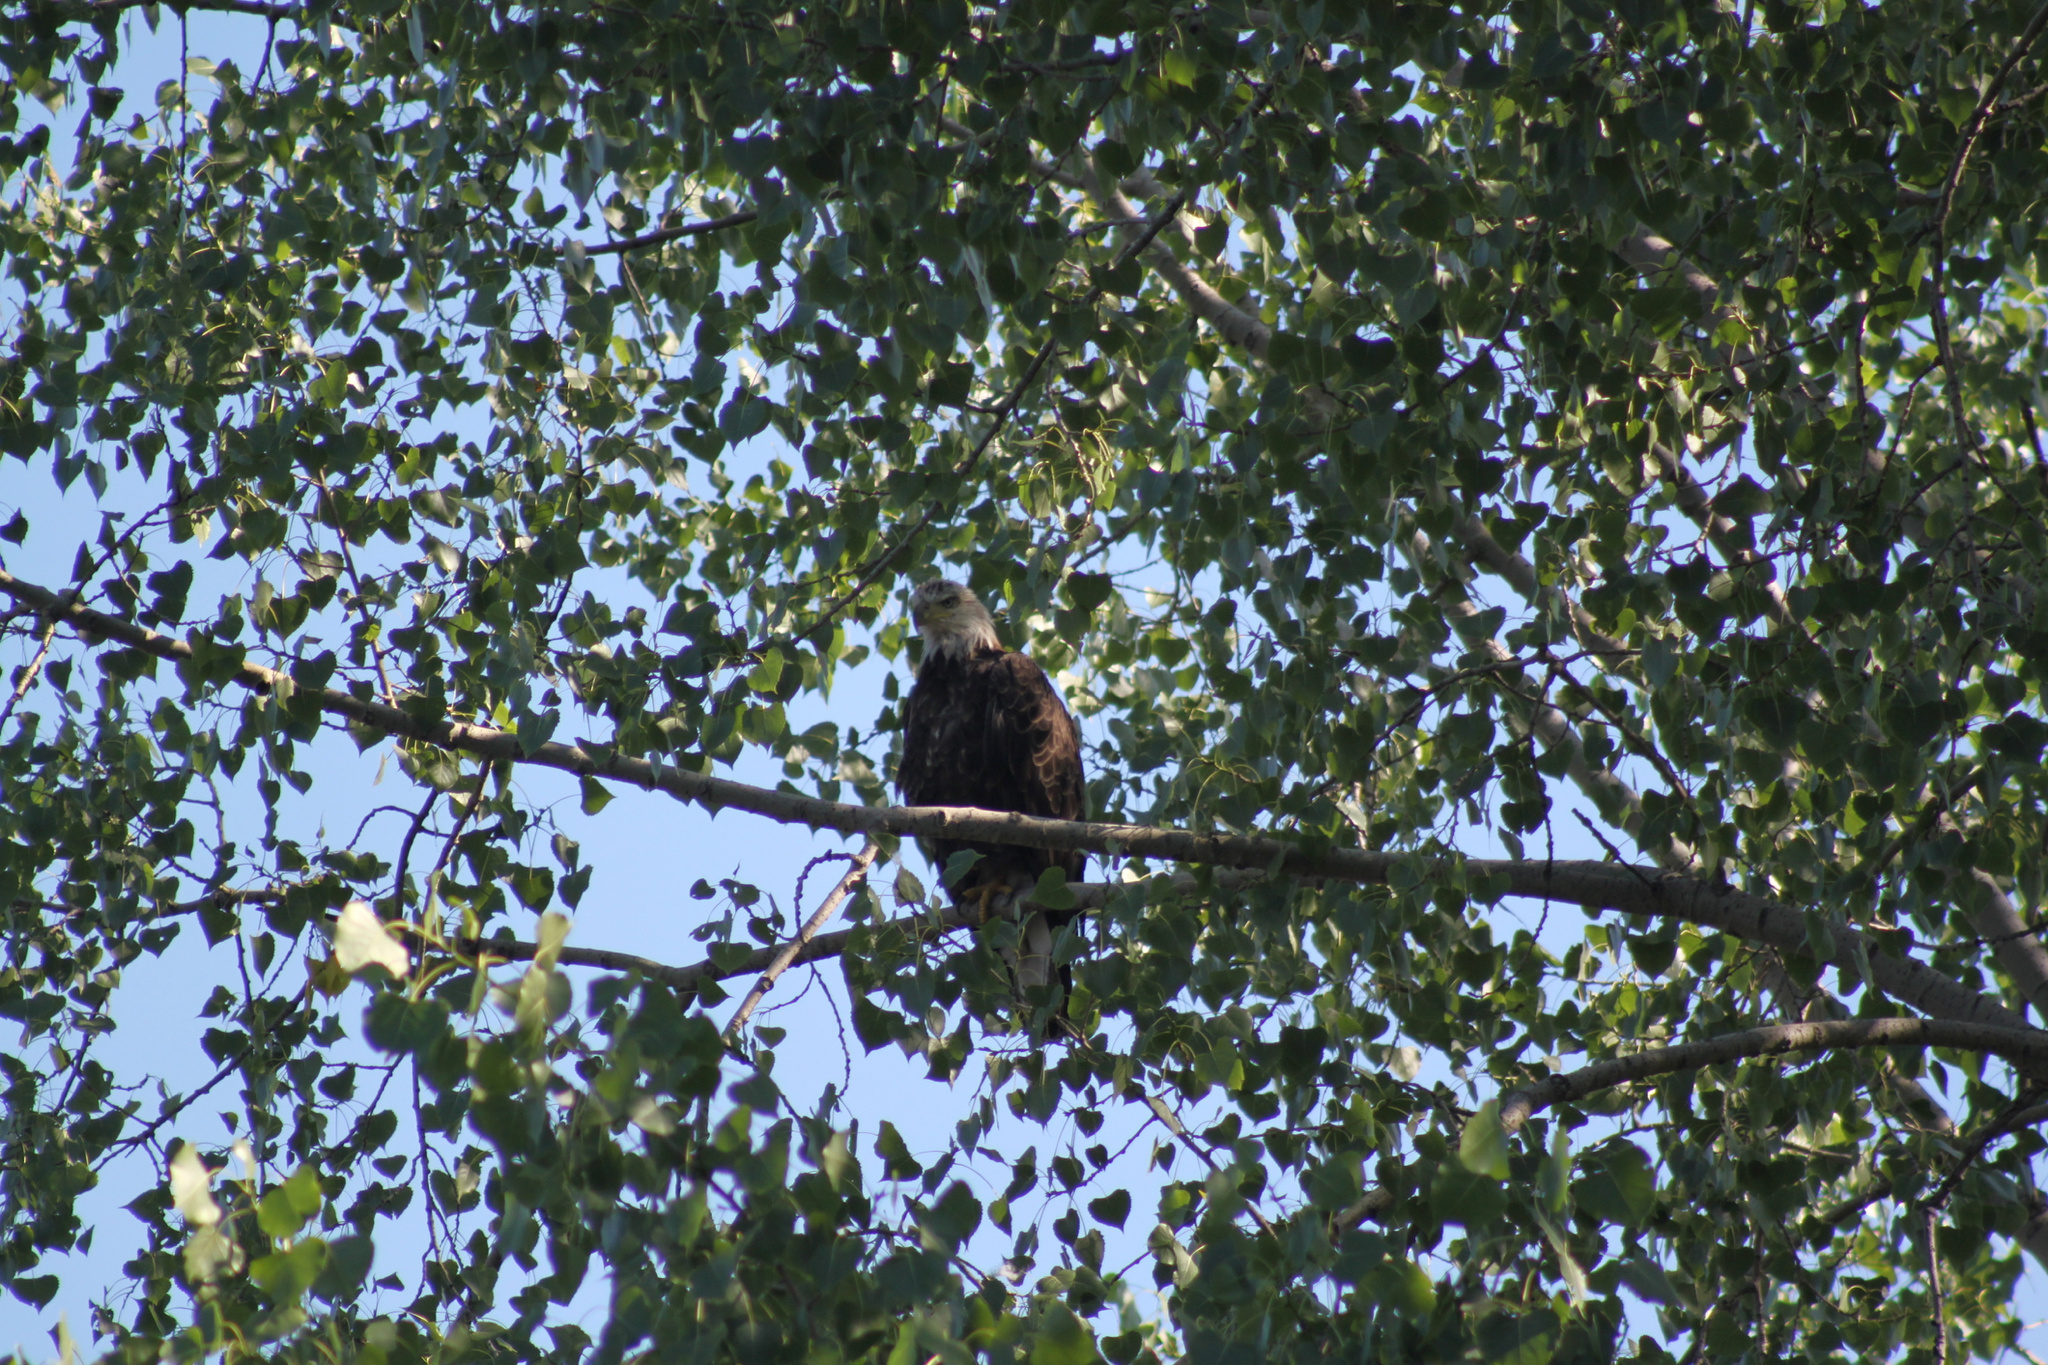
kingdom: Animalia
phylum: Chordata
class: Aves
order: Accipitriformes
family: Accipitridae
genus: Haliaeetus
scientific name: Haliaeetus leucocephalus
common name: Bald eagle
